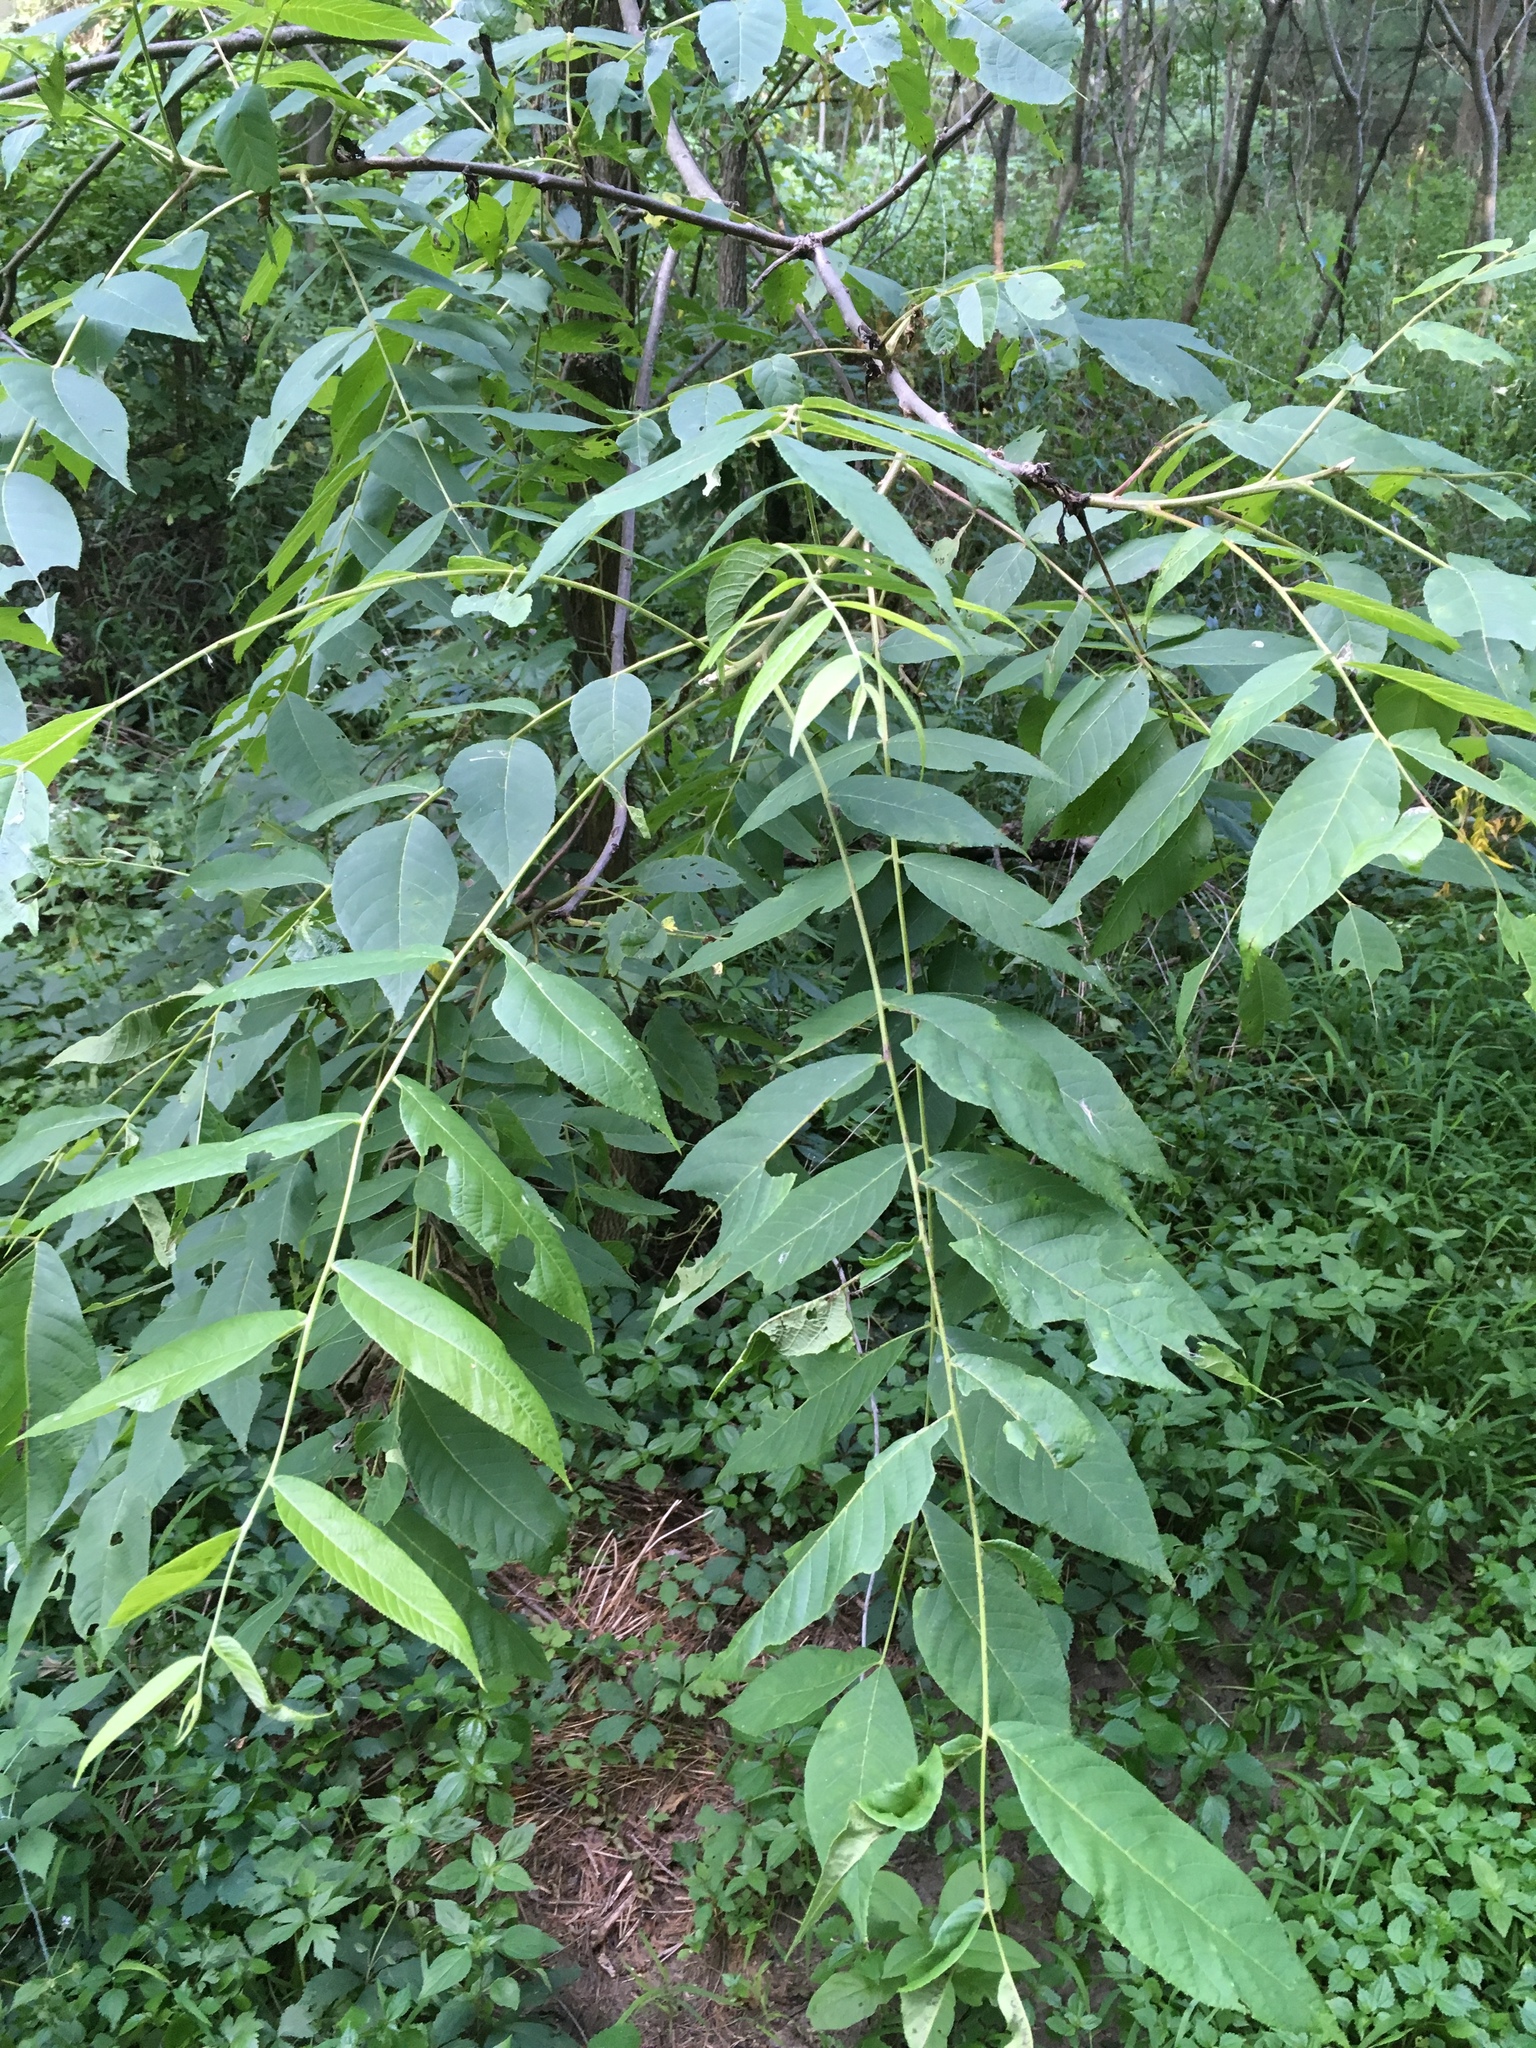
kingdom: Plantae
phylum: Tracheophyta
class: Magnoliopsida
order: Fagales
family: Juglandaceae
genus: Juglans
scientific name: Juglans nigra
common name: Black walnut
